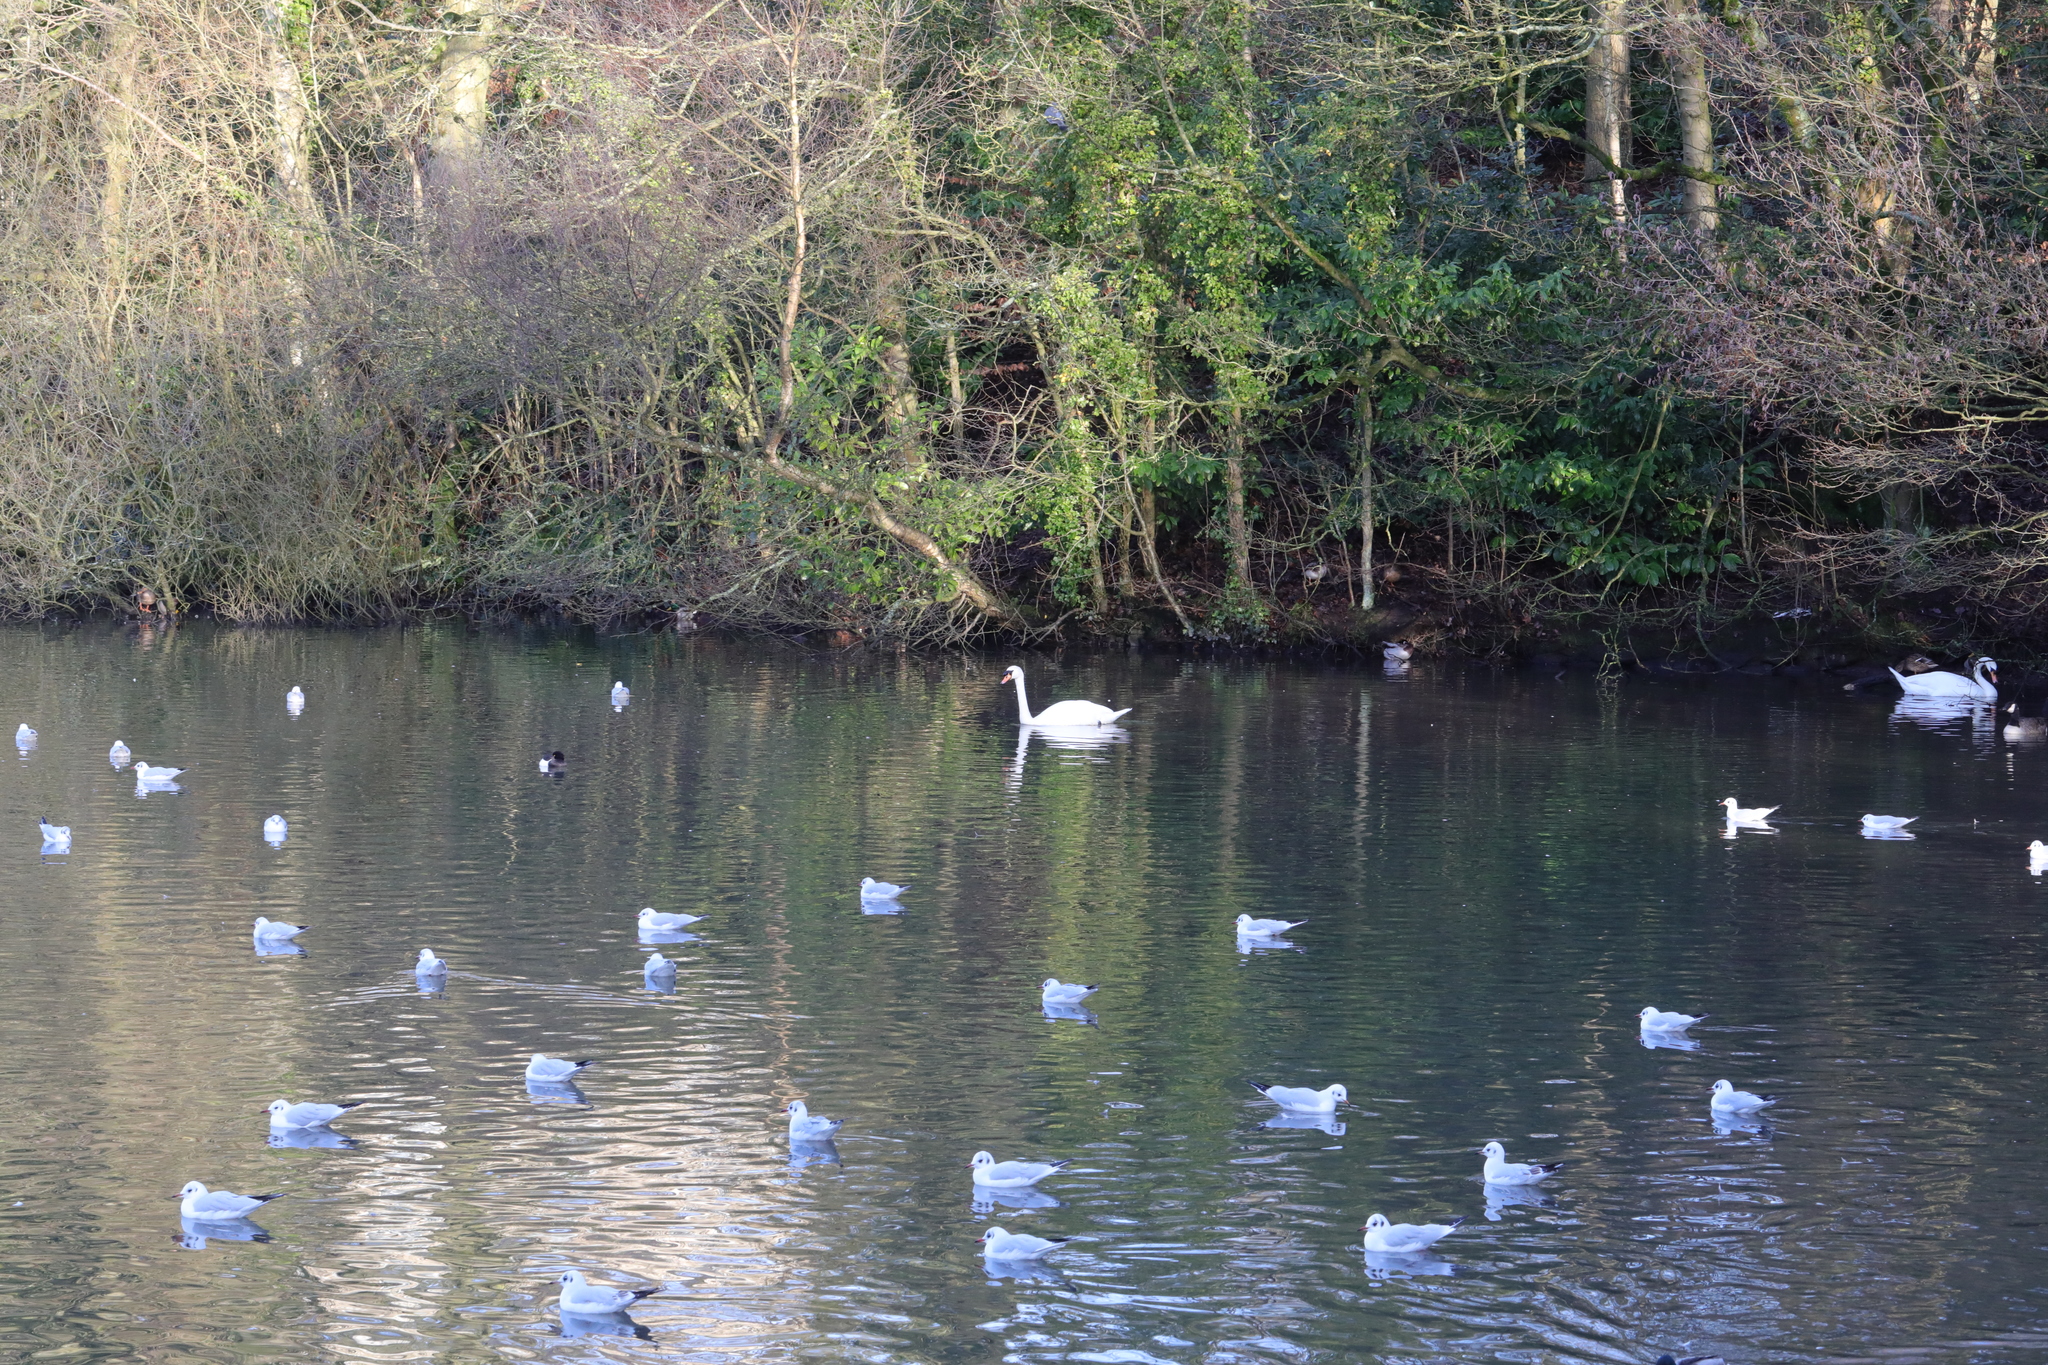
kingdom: Animalia
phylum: Chordata
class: Aves
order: Anseriformes
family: Anatidae
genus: Cygnus
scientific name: Cygnus olor
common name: Mute swan
